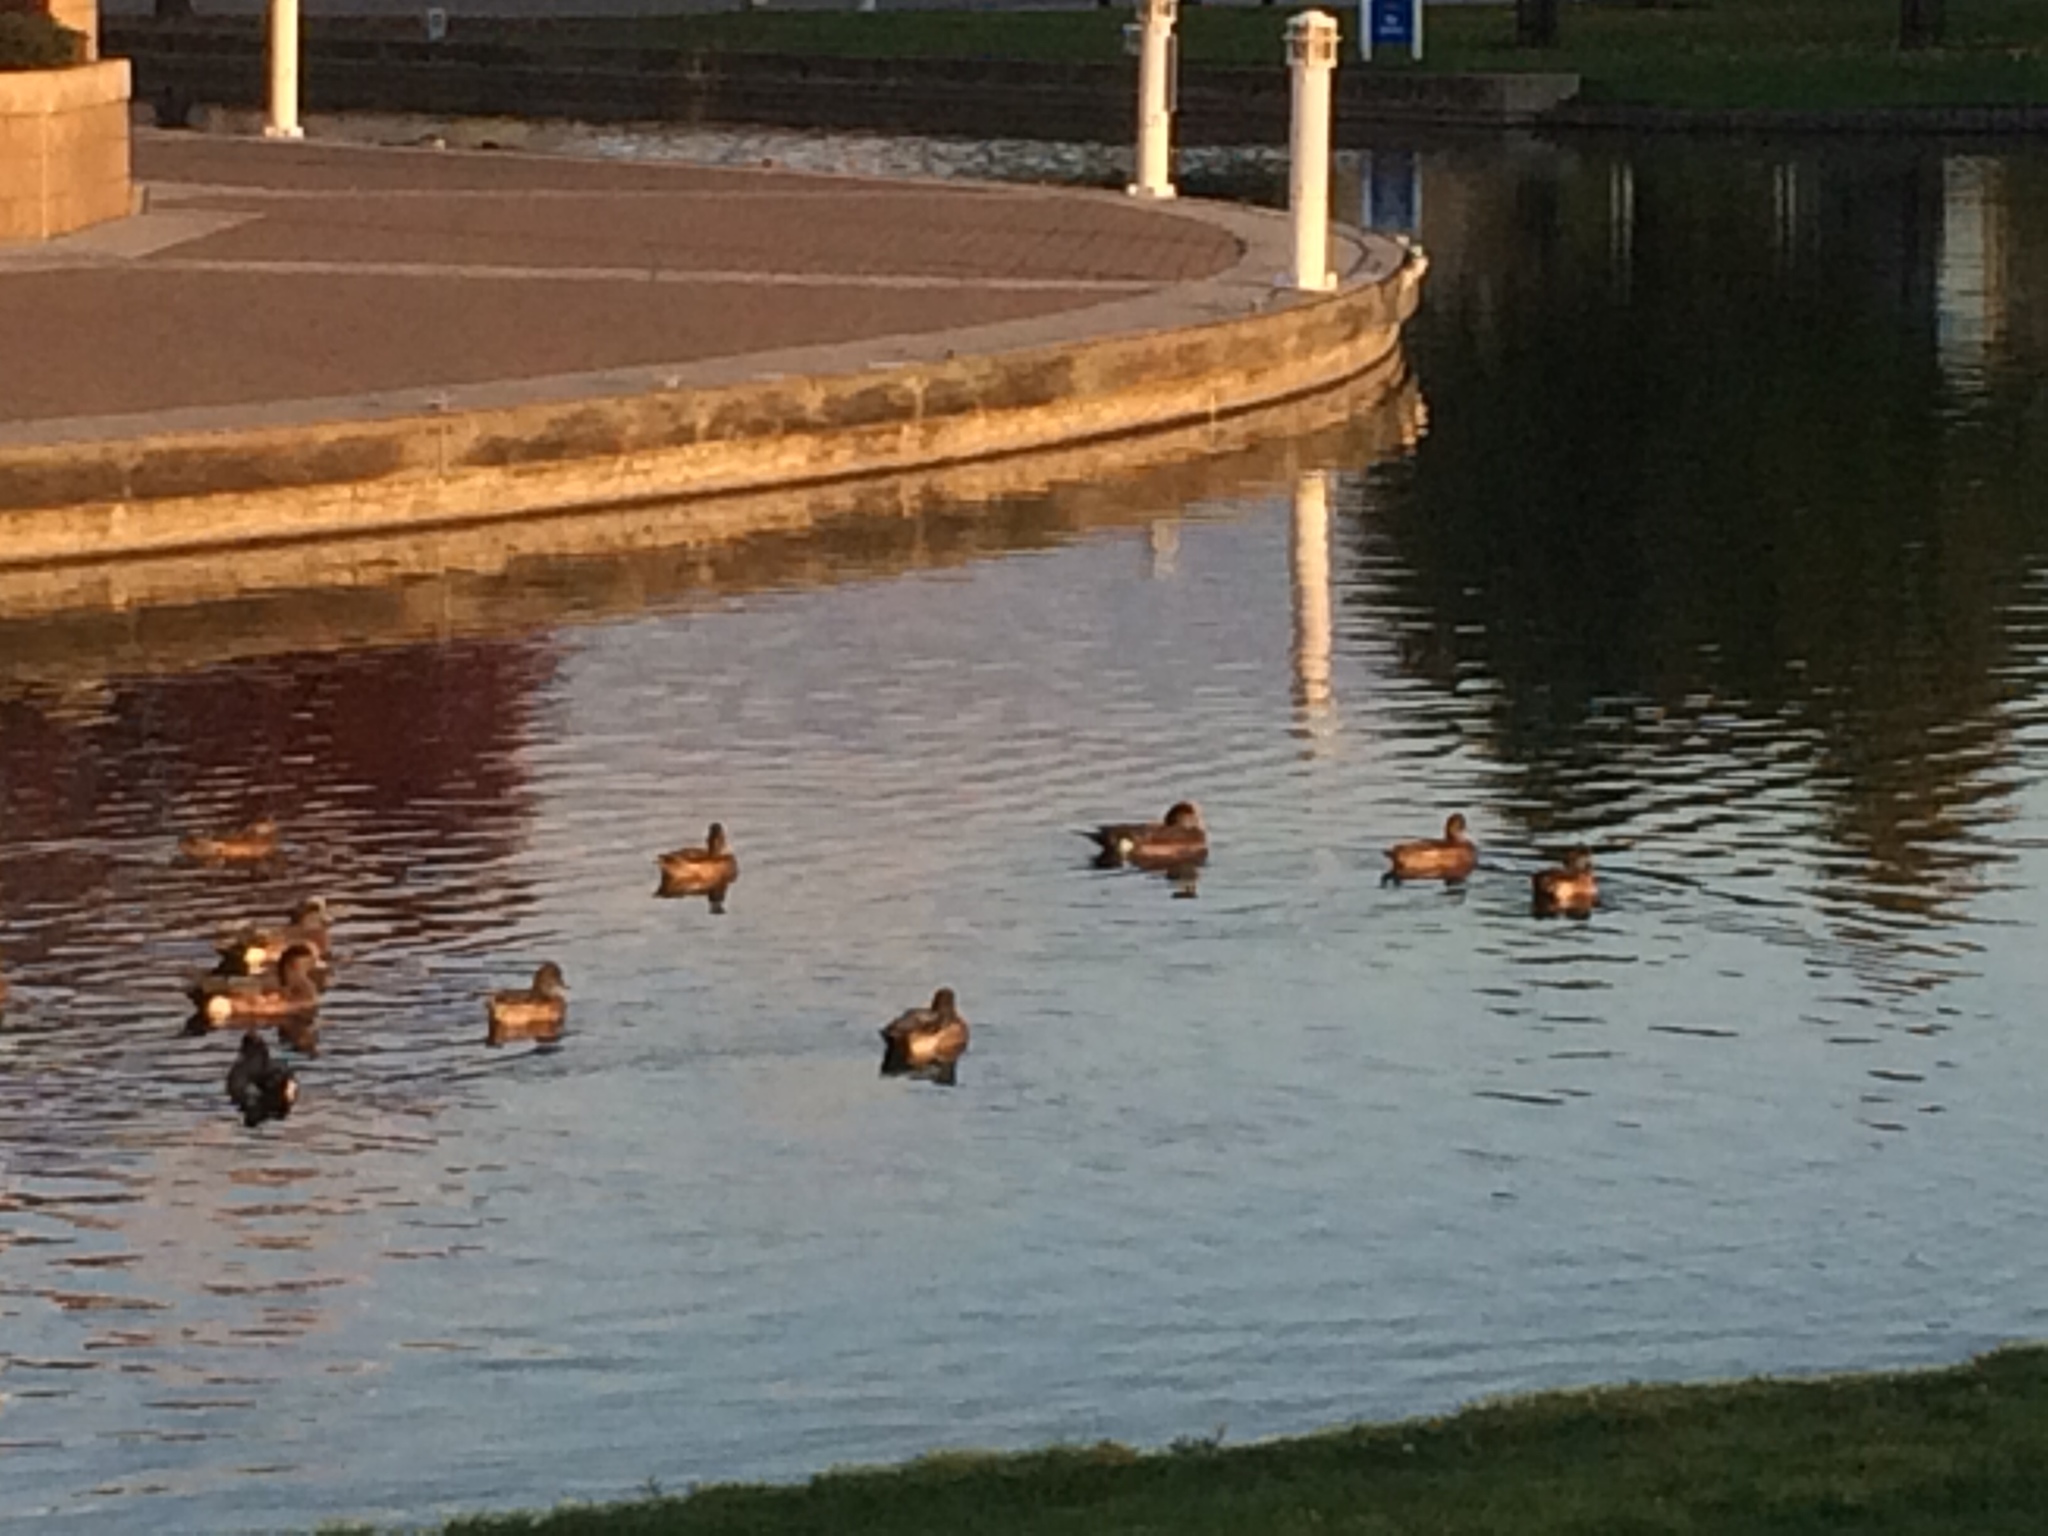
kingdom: Animalia
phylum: Chordata
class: Aves
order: Anseriformes
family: Anatidae
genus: Mareca
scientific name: Mareca americana
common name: American wigeon
